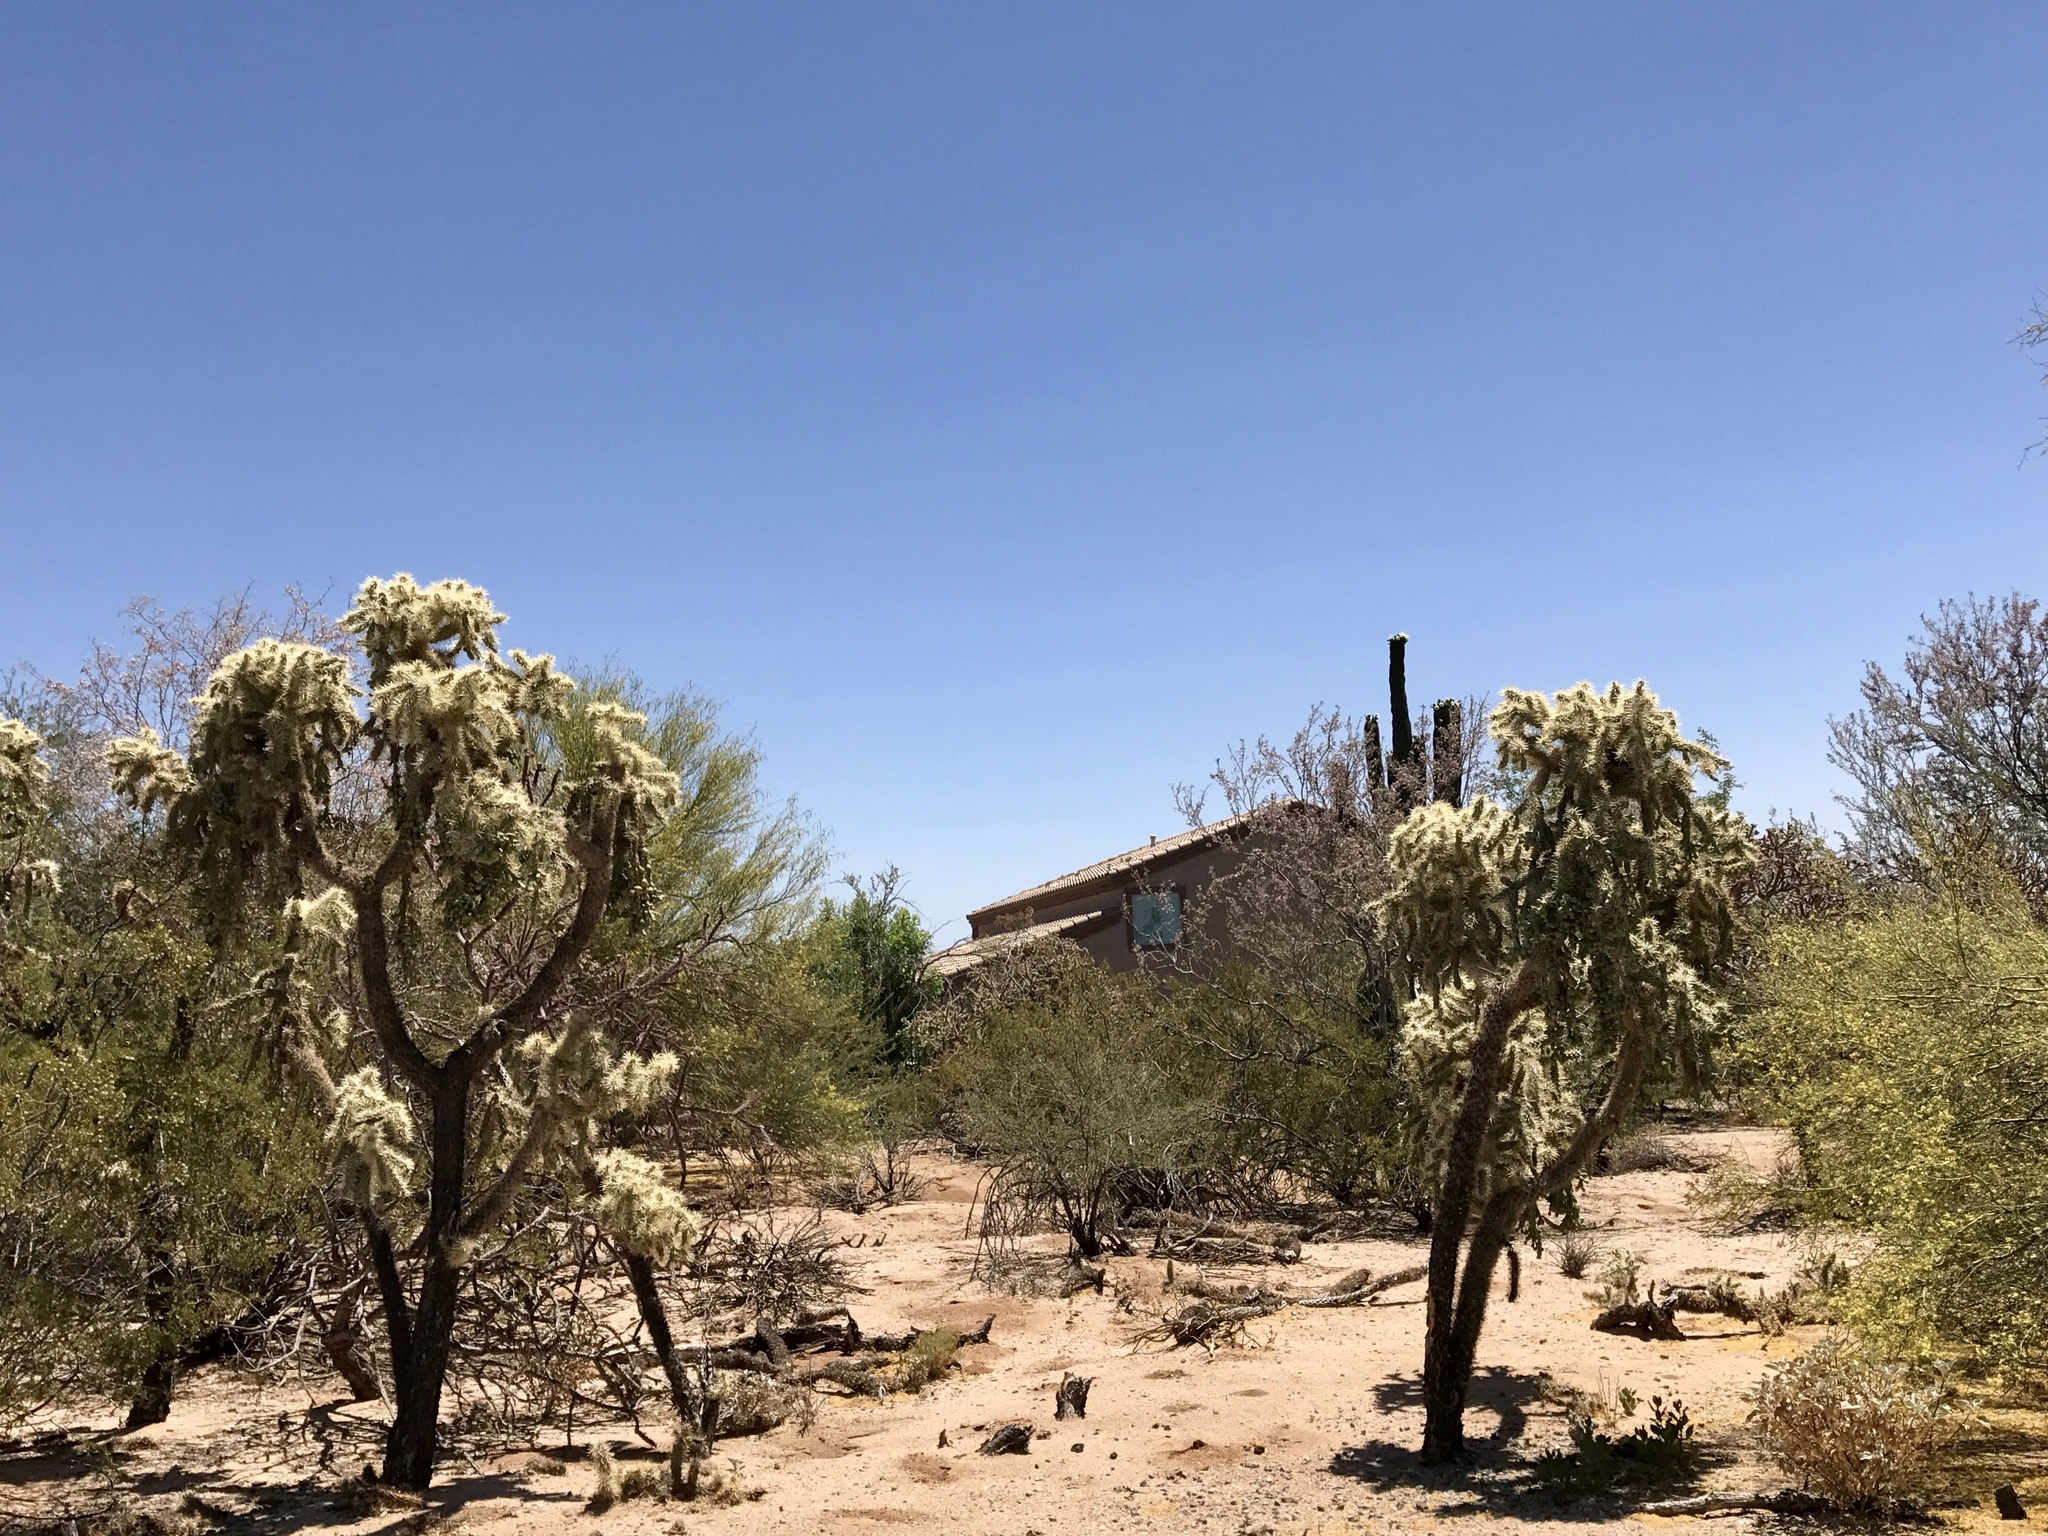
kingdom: Plantae
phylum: Tracheophyta
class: Magnoliopsida
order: Caryophyllales
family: Cactaceae
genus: Cylindropuntia
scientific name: Cylindropuntia fulgida
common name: Jumping cholla
